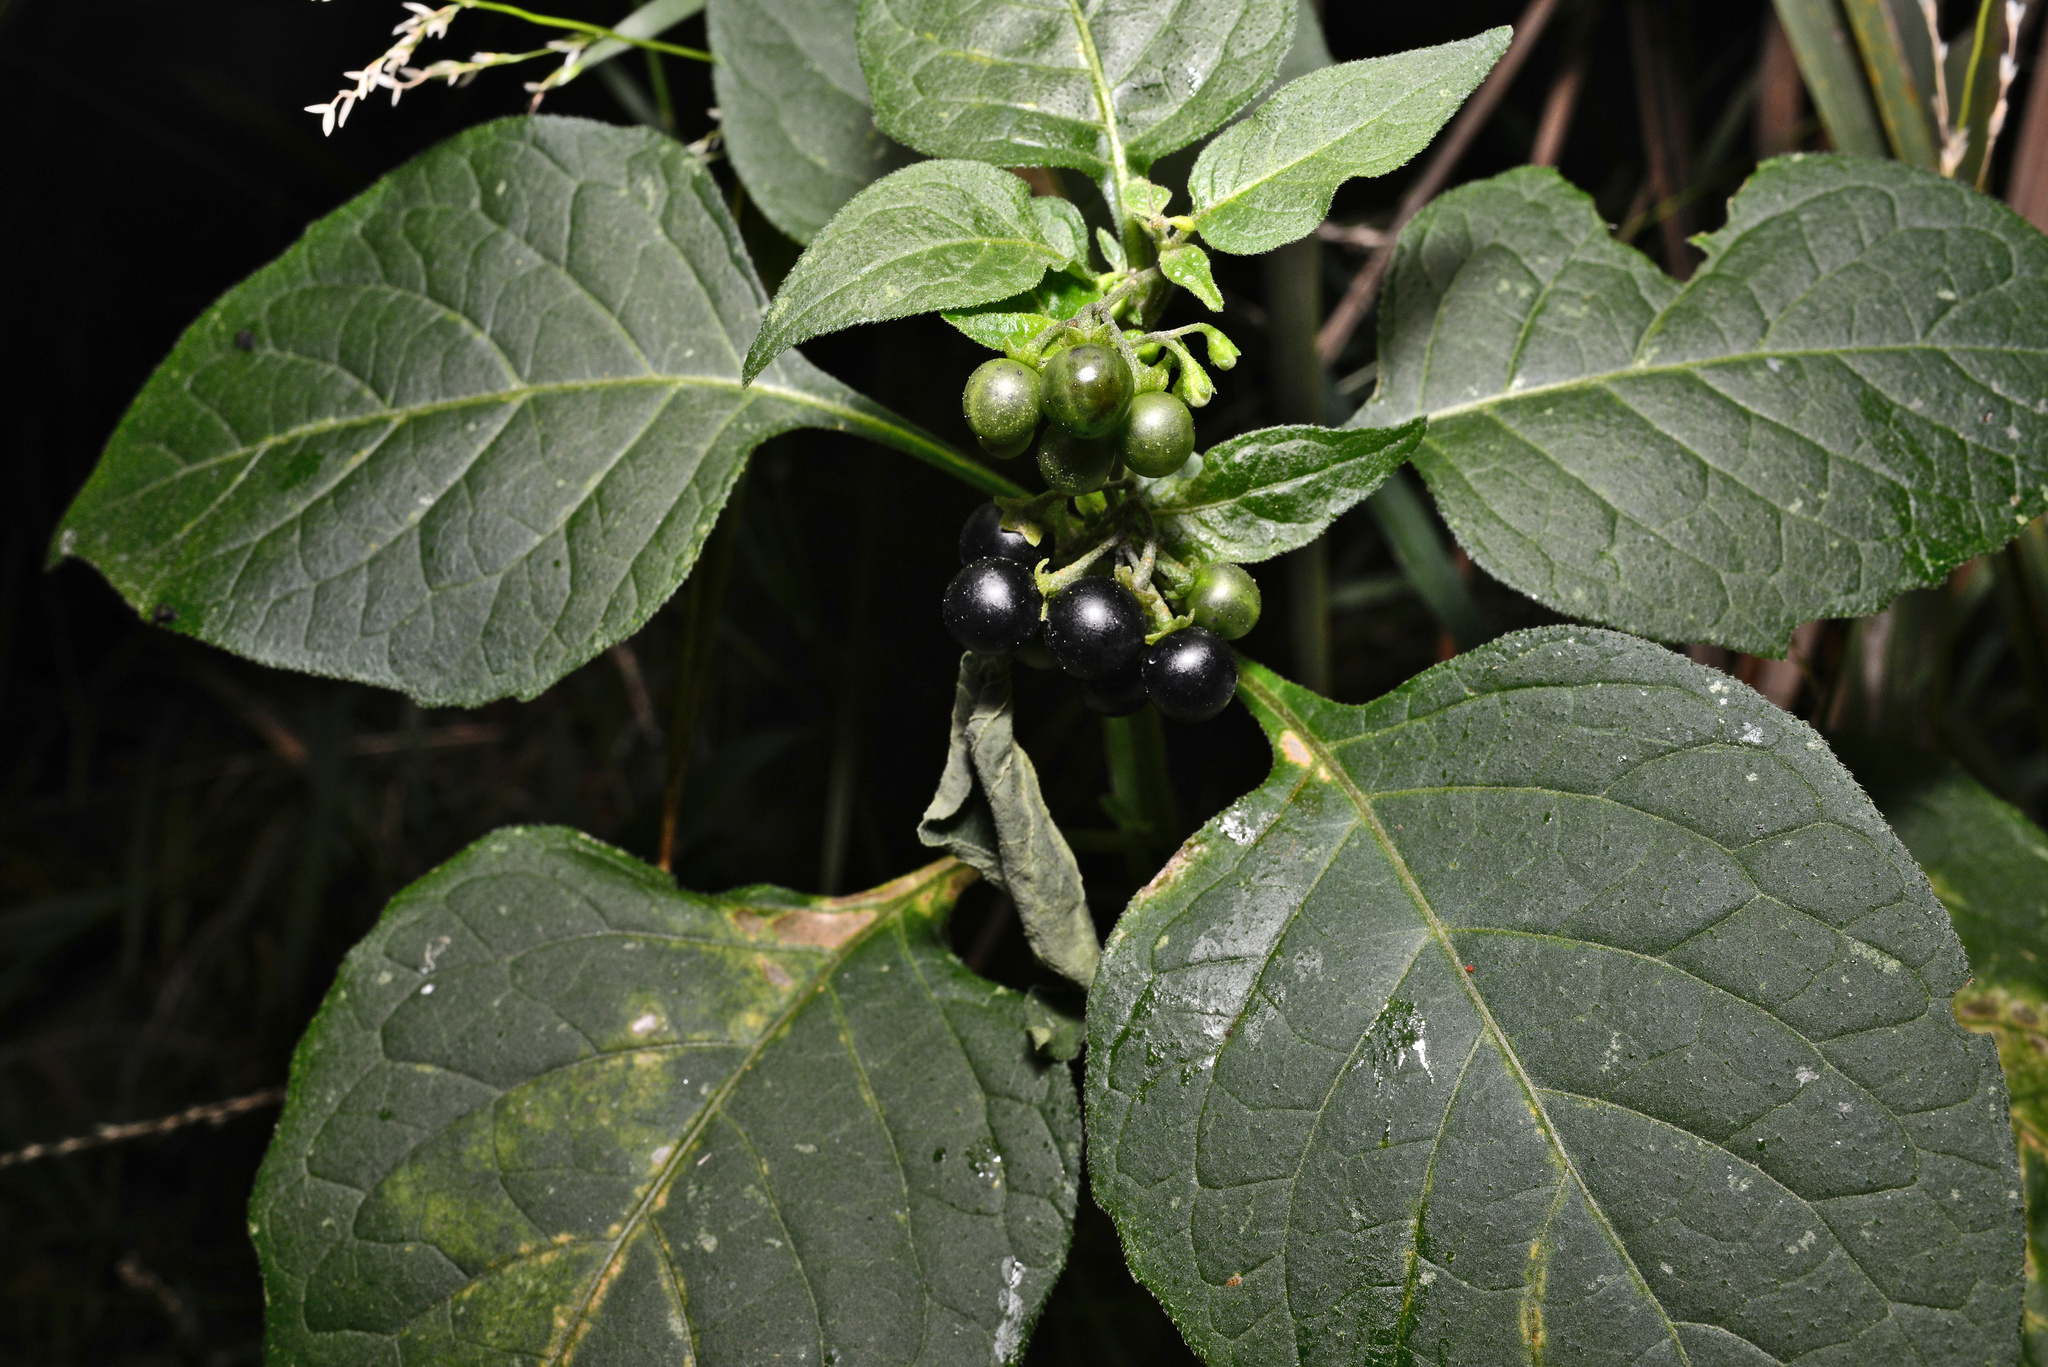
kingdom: Plantae
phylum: Tracheophyta
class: Magnoliopsida
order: Solanales
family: Solanaceae
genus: Solanum
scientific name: Solanum nigrum
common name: Black nightshade
